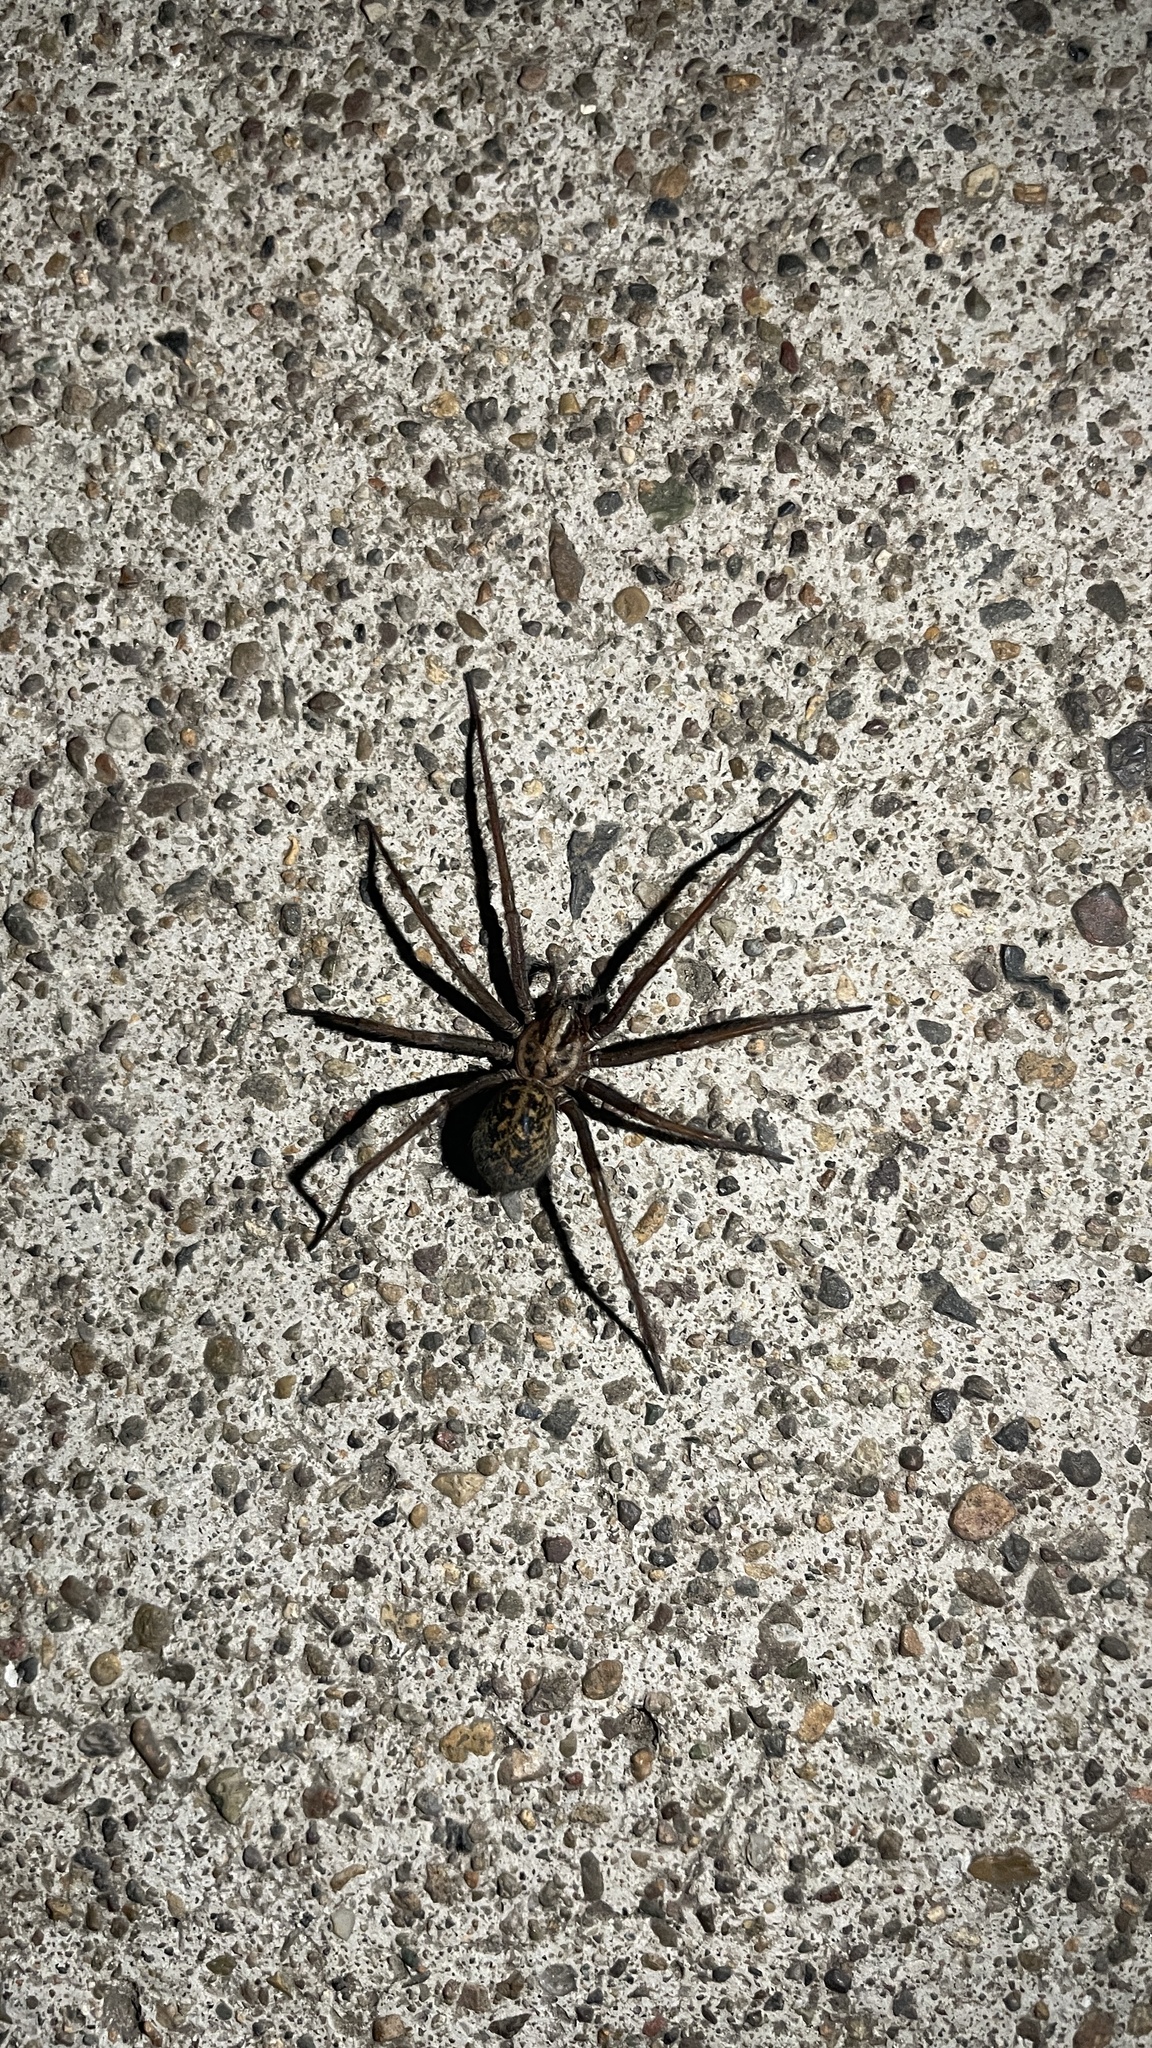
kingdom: Animalia
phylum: Arthropoda
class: Arachnida
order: Araneae
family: Agelenidae
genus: Eratigena
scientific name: Eratigena duellica
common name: Giant house spider
